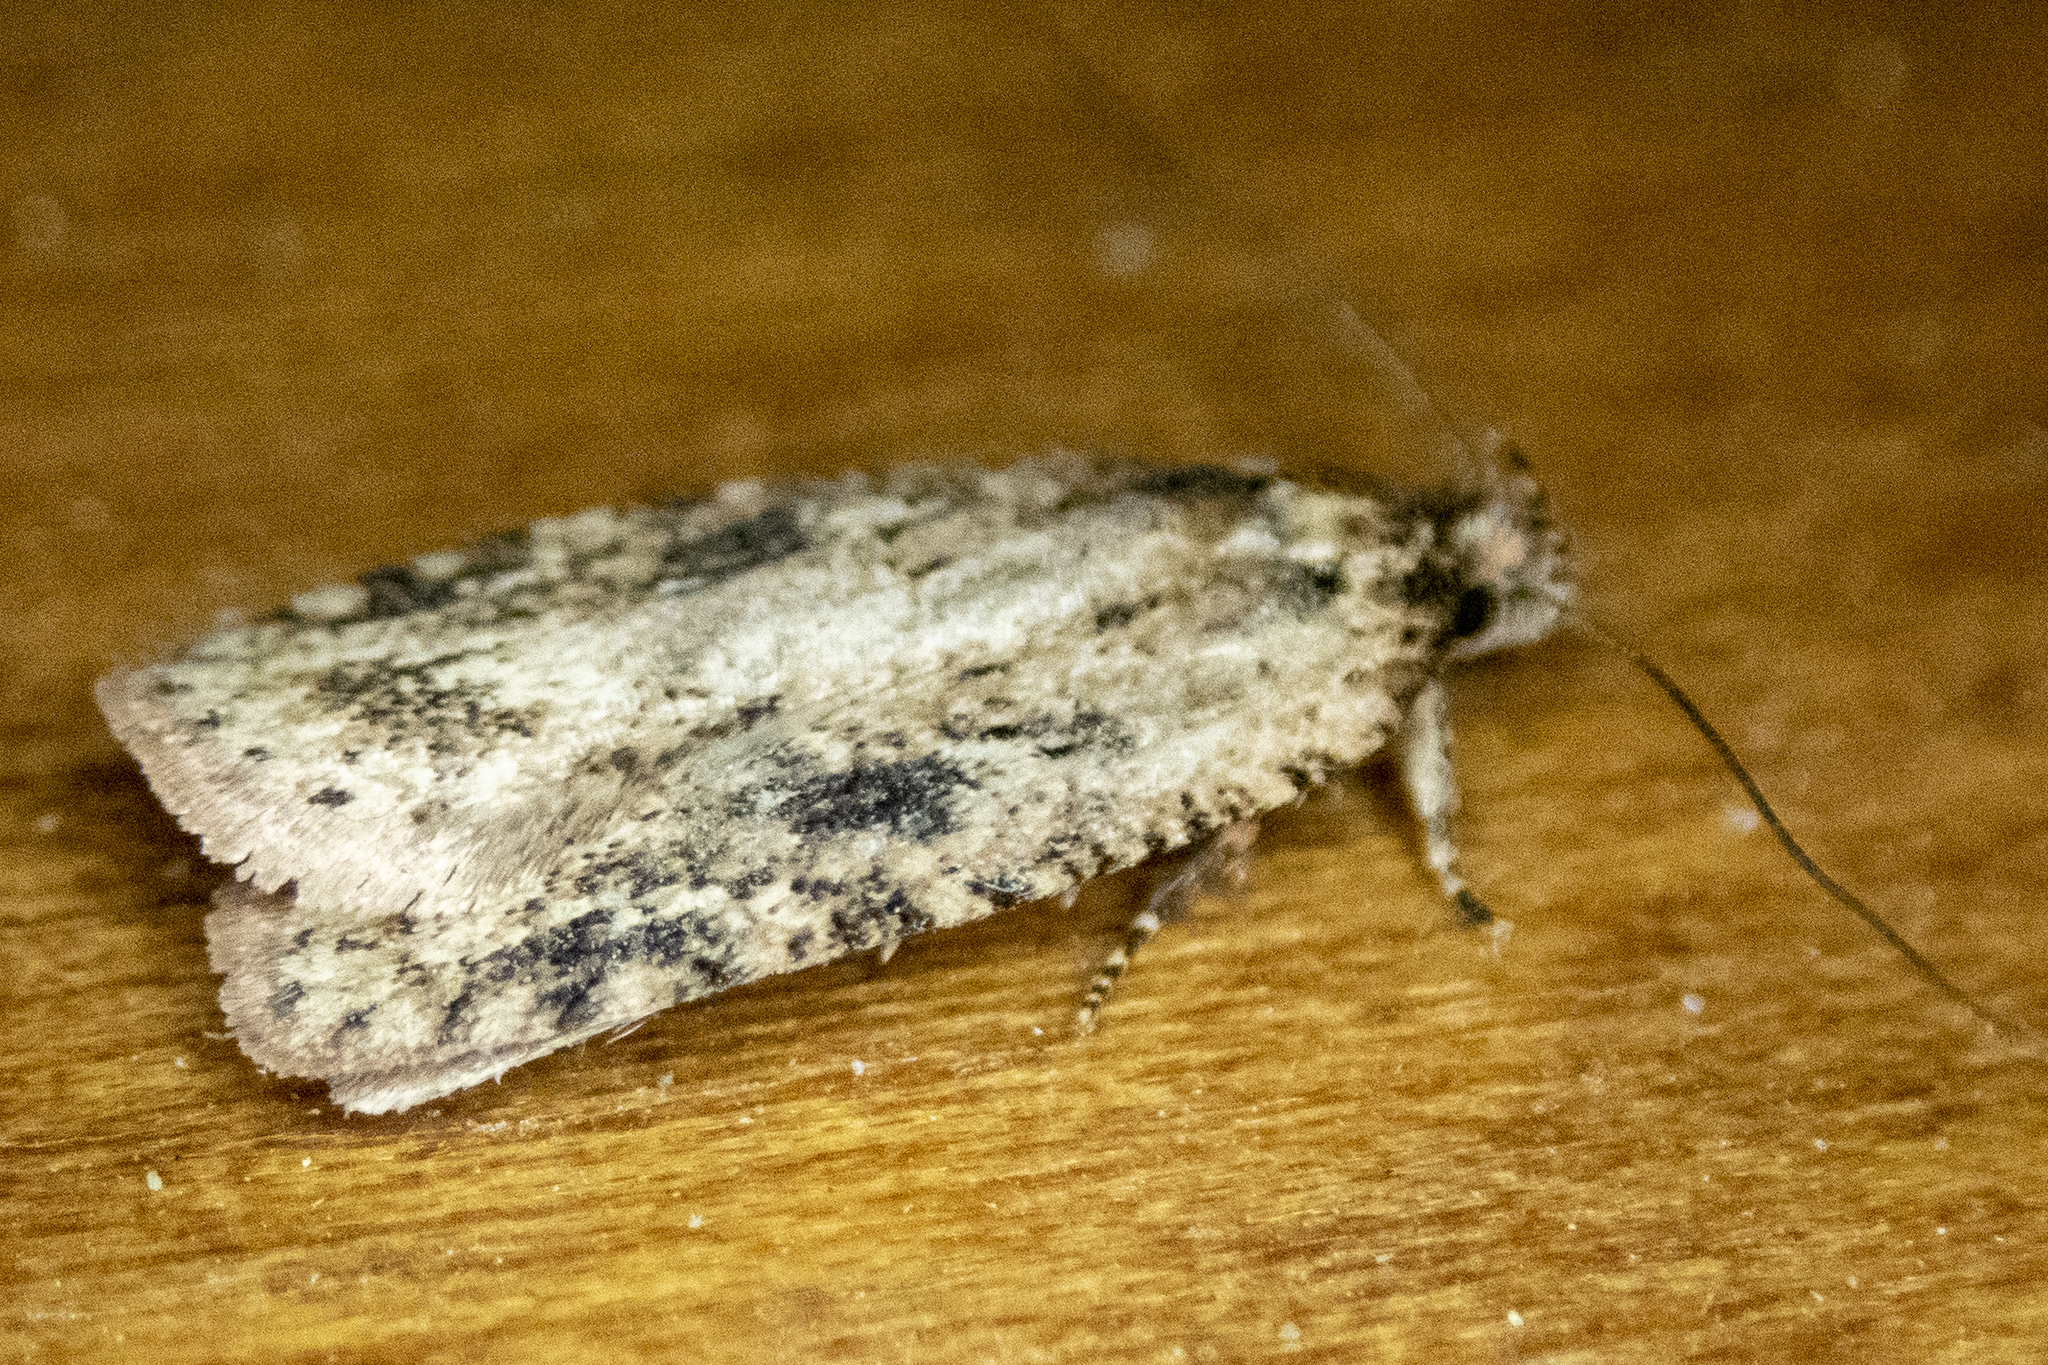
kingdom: Animalia
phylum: Arthropoda
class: Insecta
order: Lepidoptera
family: Depressariidae
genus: Agonopterix
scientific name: Agonopterix pulvipennella
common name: Goldenrod leafffolder
